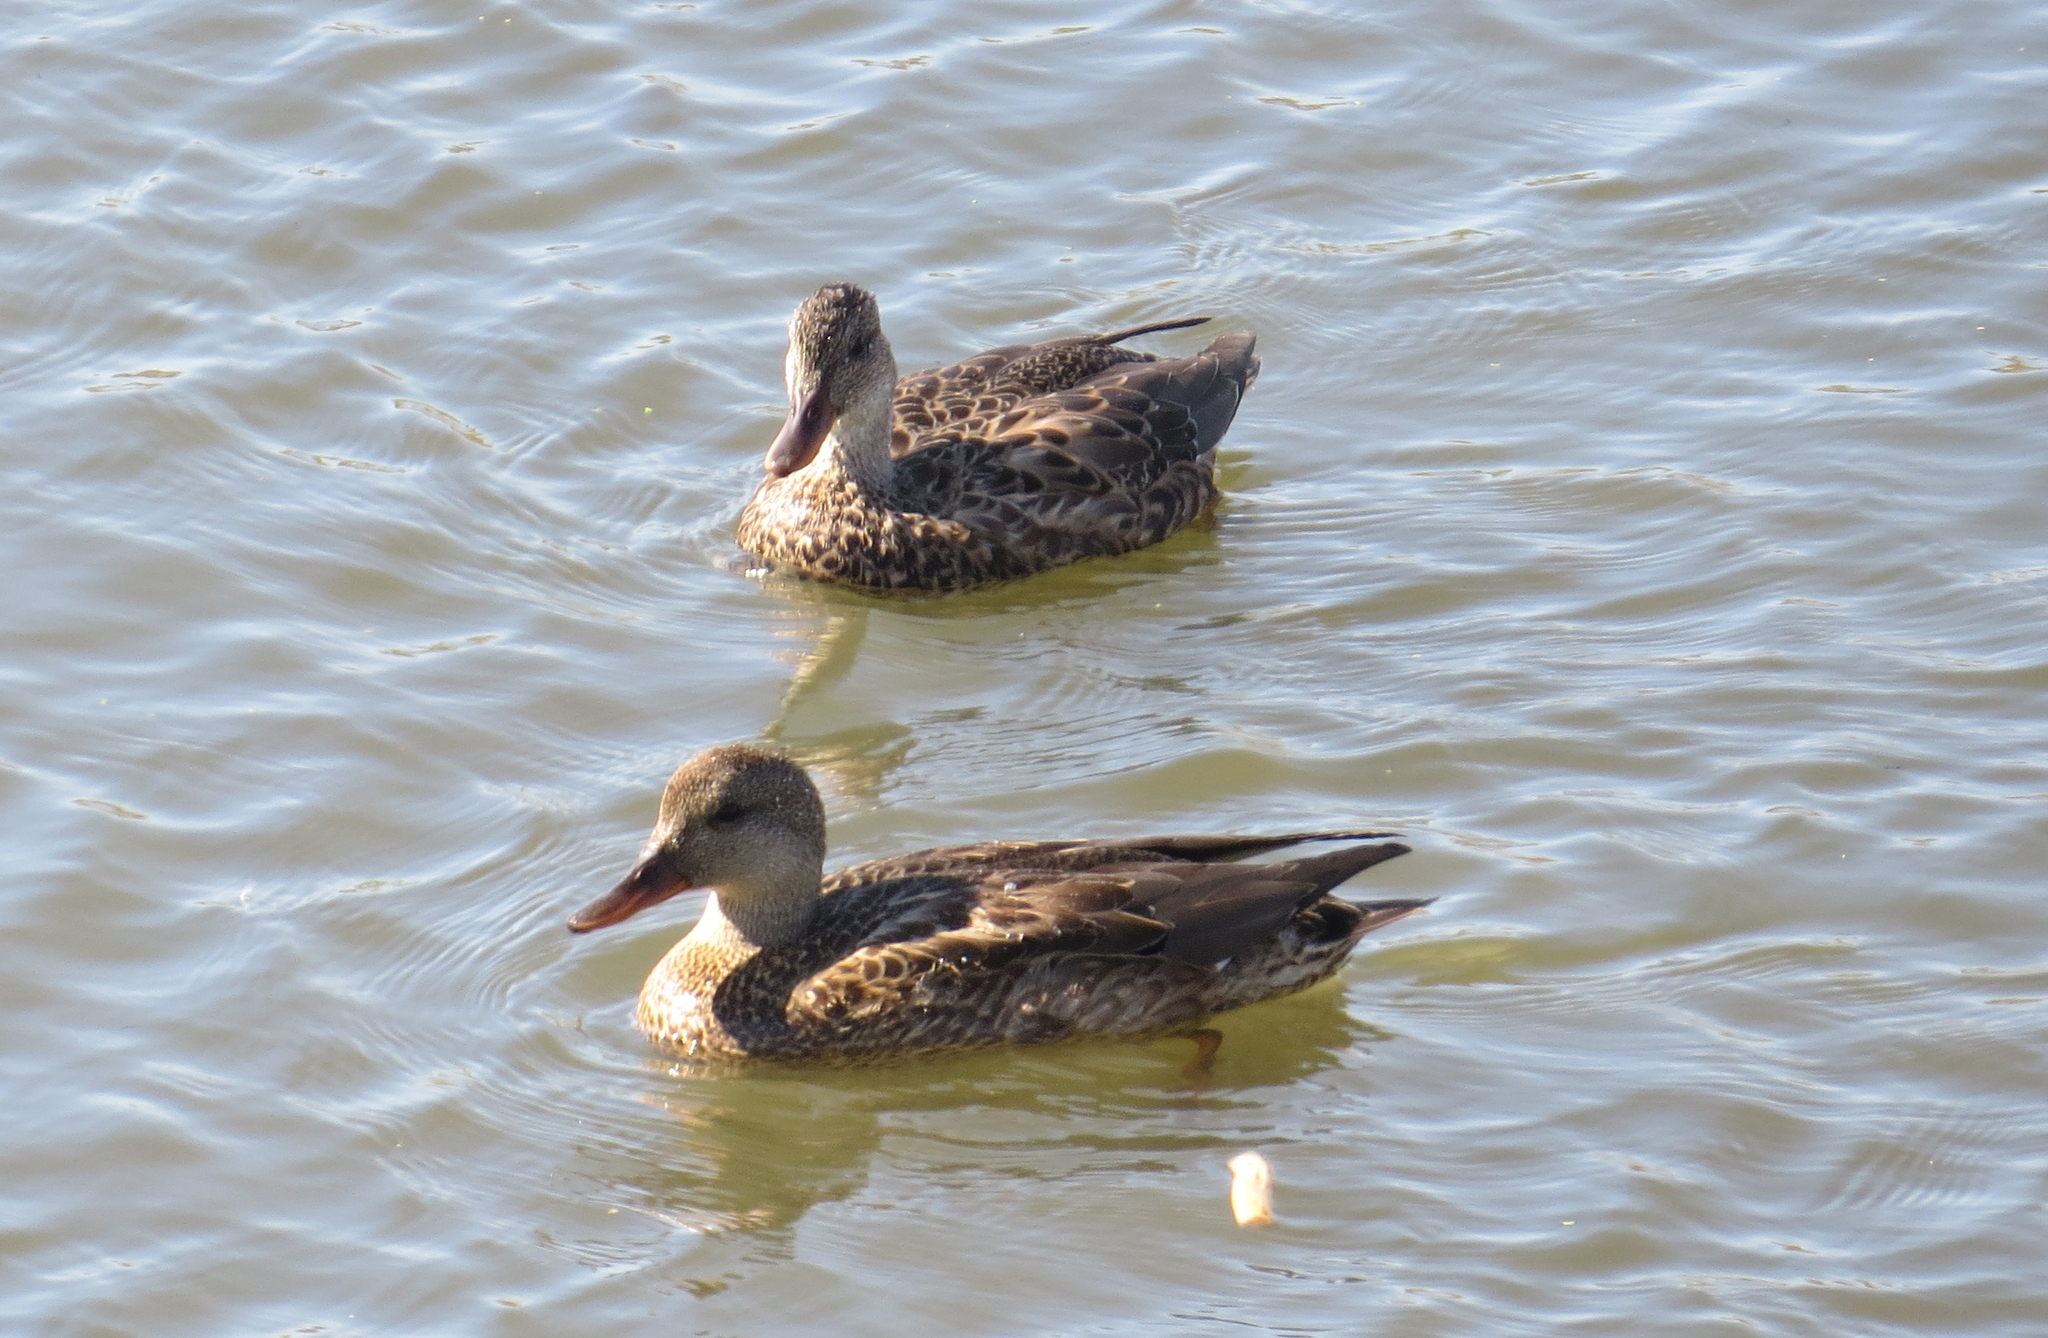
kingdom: Animalia
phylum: Chordata
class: Aves
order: Anseriformes
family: Anatidae
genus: Mareca
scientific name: Mareca strepera
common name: Gadwall
